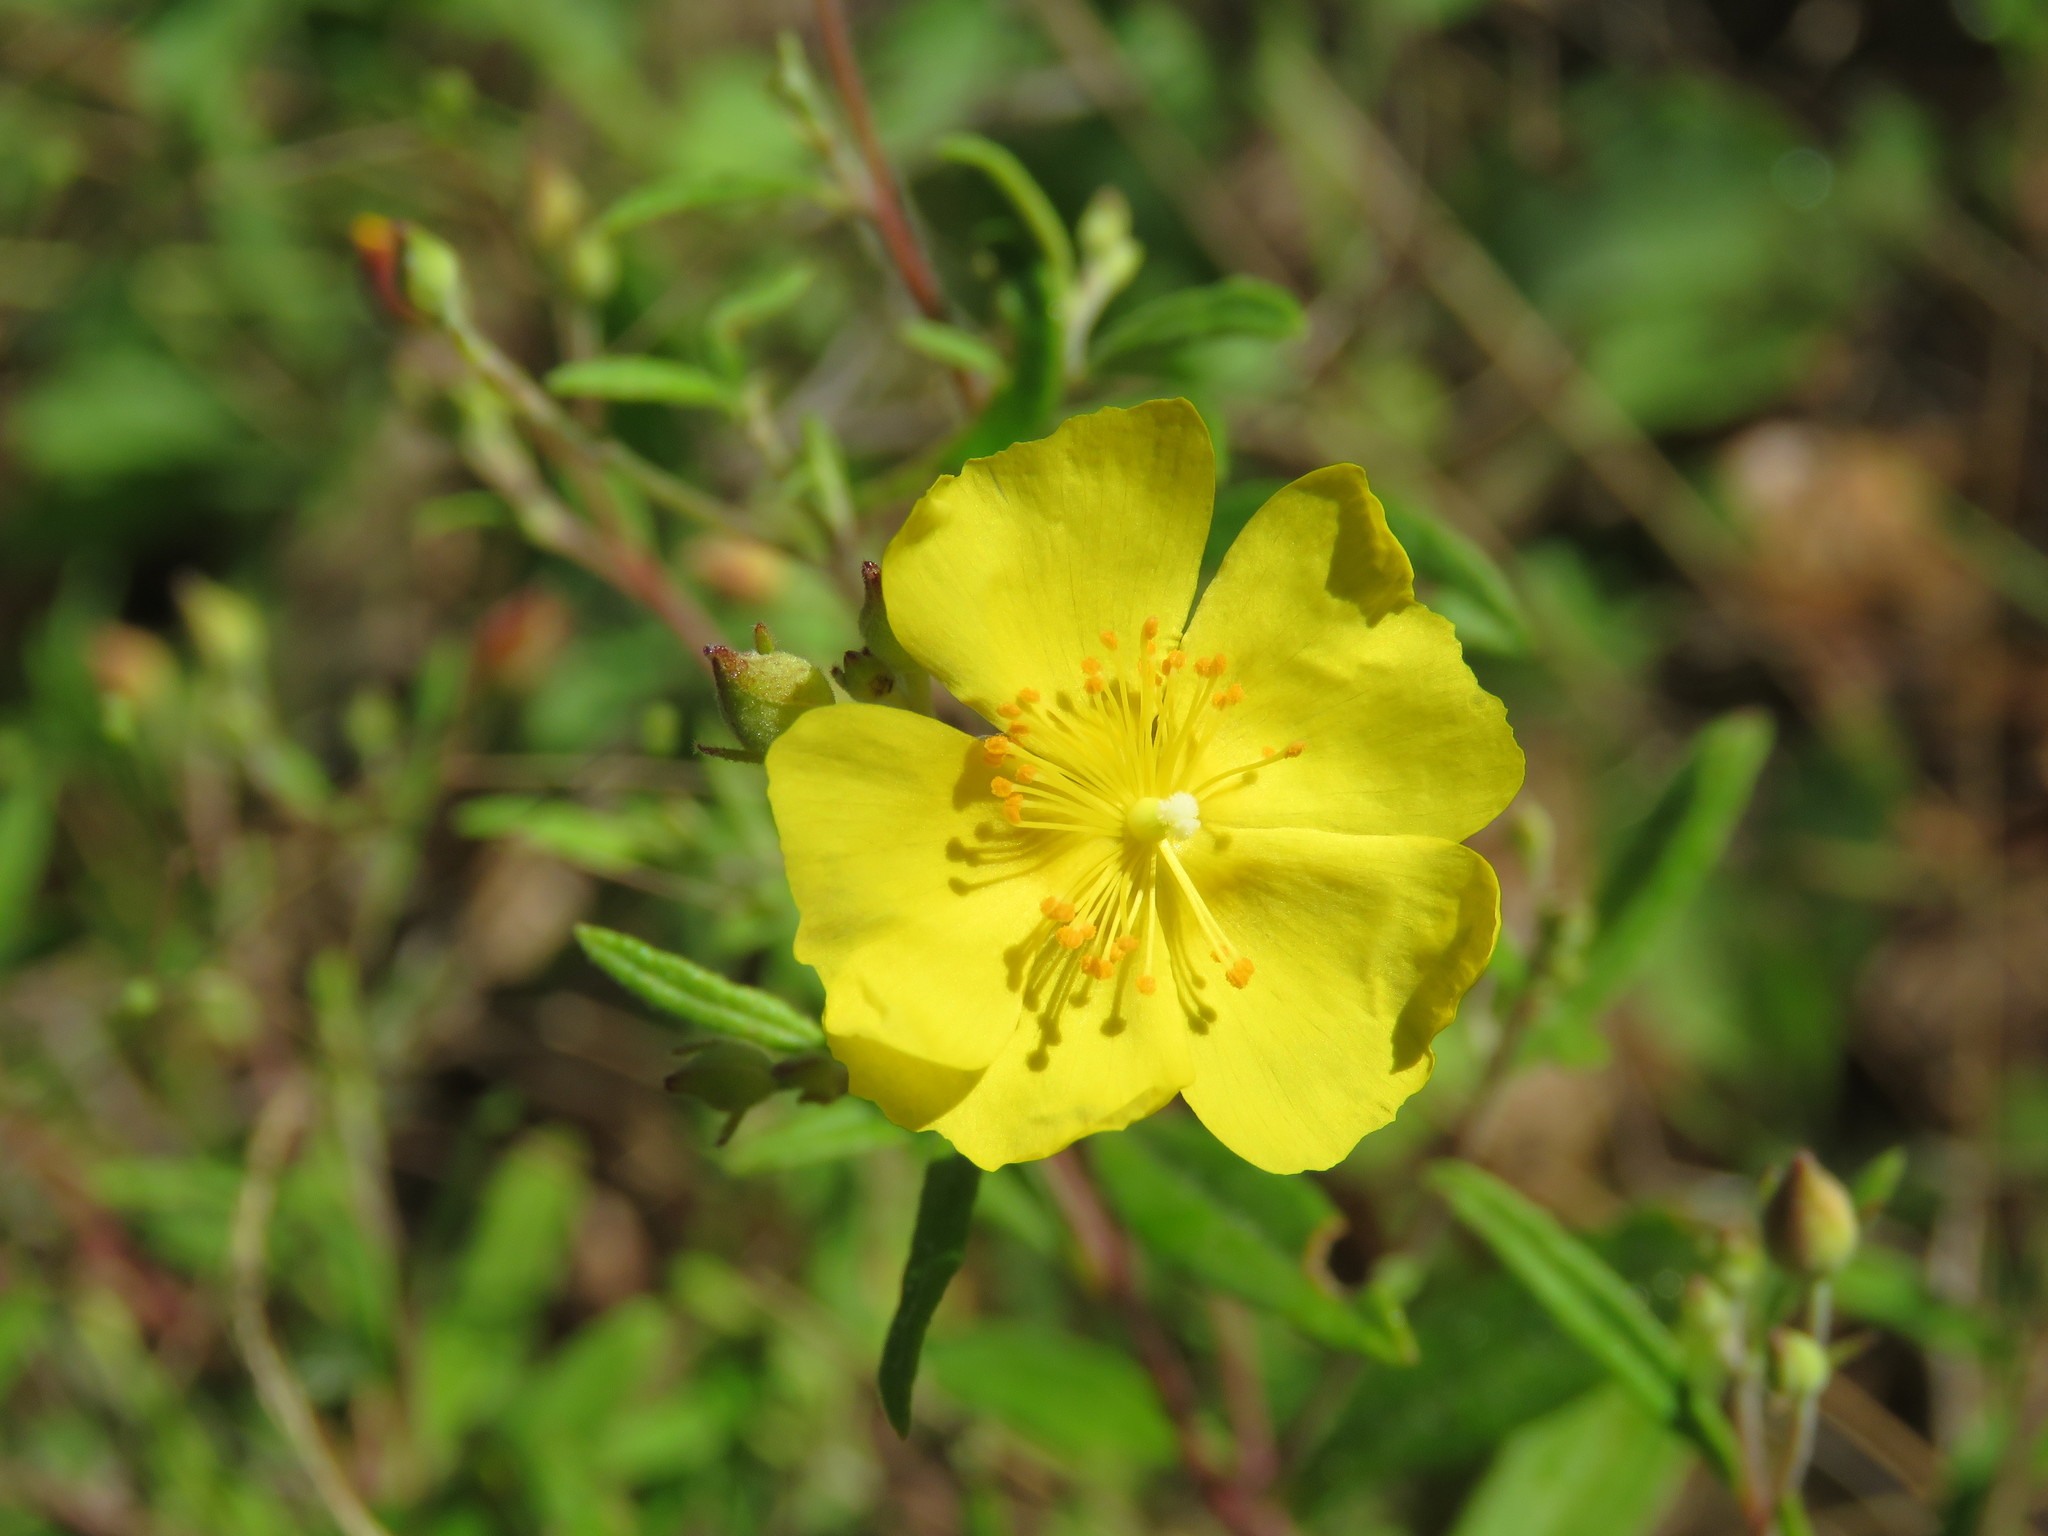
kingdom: Plantae
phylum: Tracheophyta
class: Magnoliopsida
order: Malvales
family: Cistaceae
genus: Crocanthemum
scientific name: Crocanthemum georgianum
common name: Georgia frostweed
